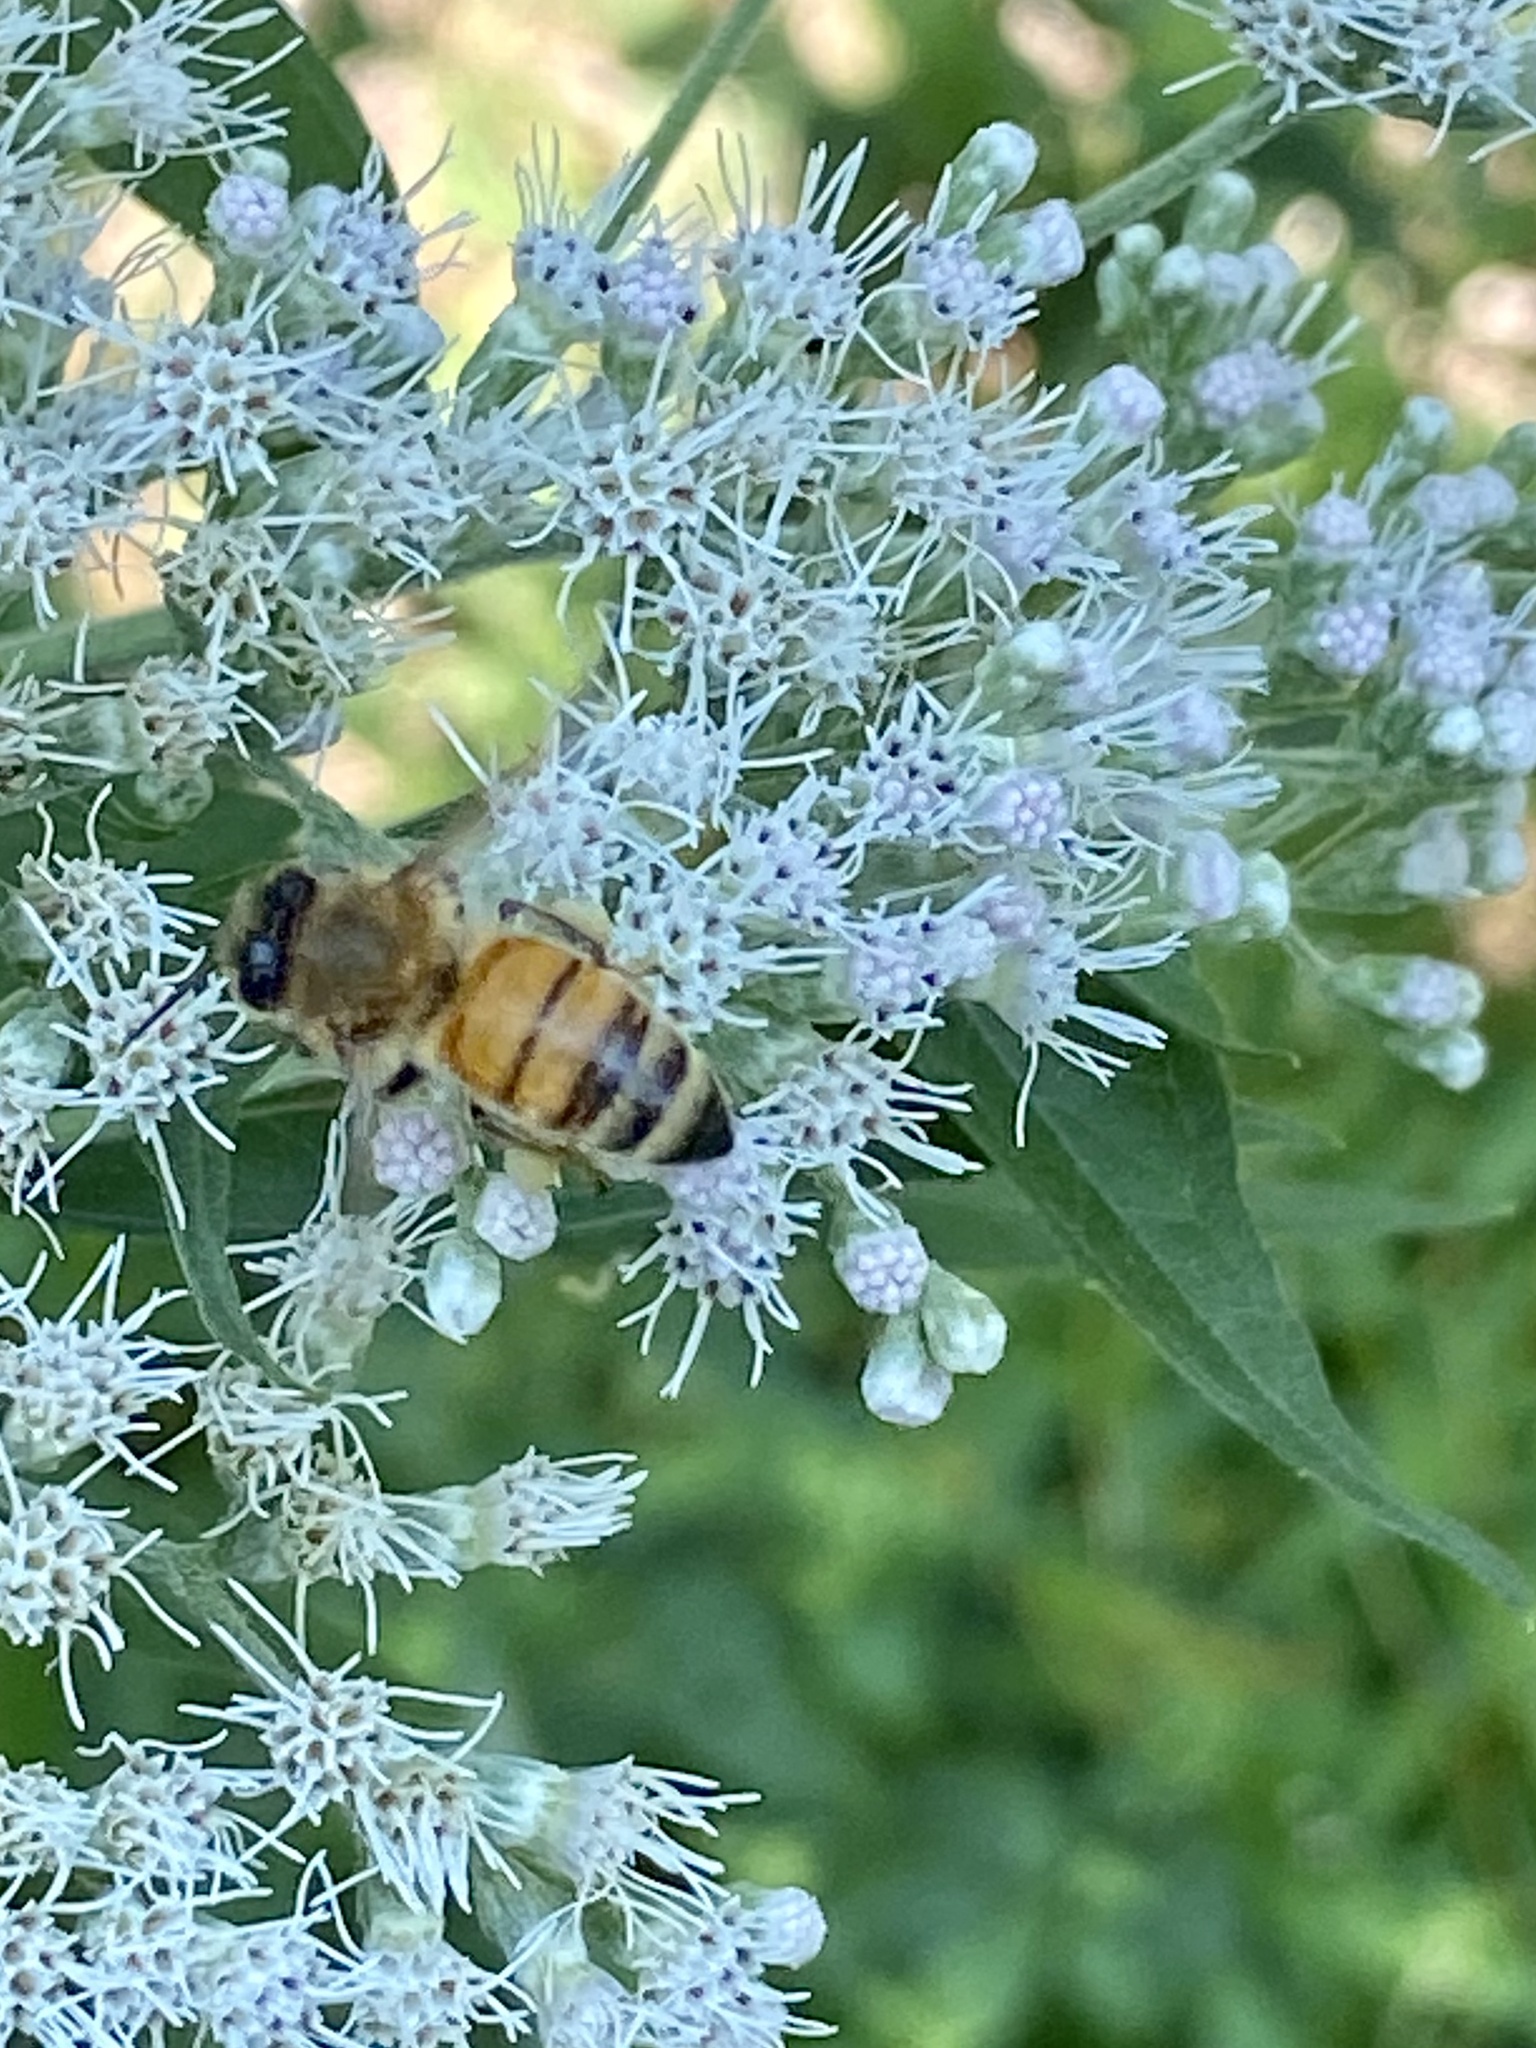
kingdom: Animalia
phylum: Arthropoda
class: Insecta
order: Hymenoptera
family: Apidae
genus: Apis
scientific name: Apis mellifera
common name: Honey bee
